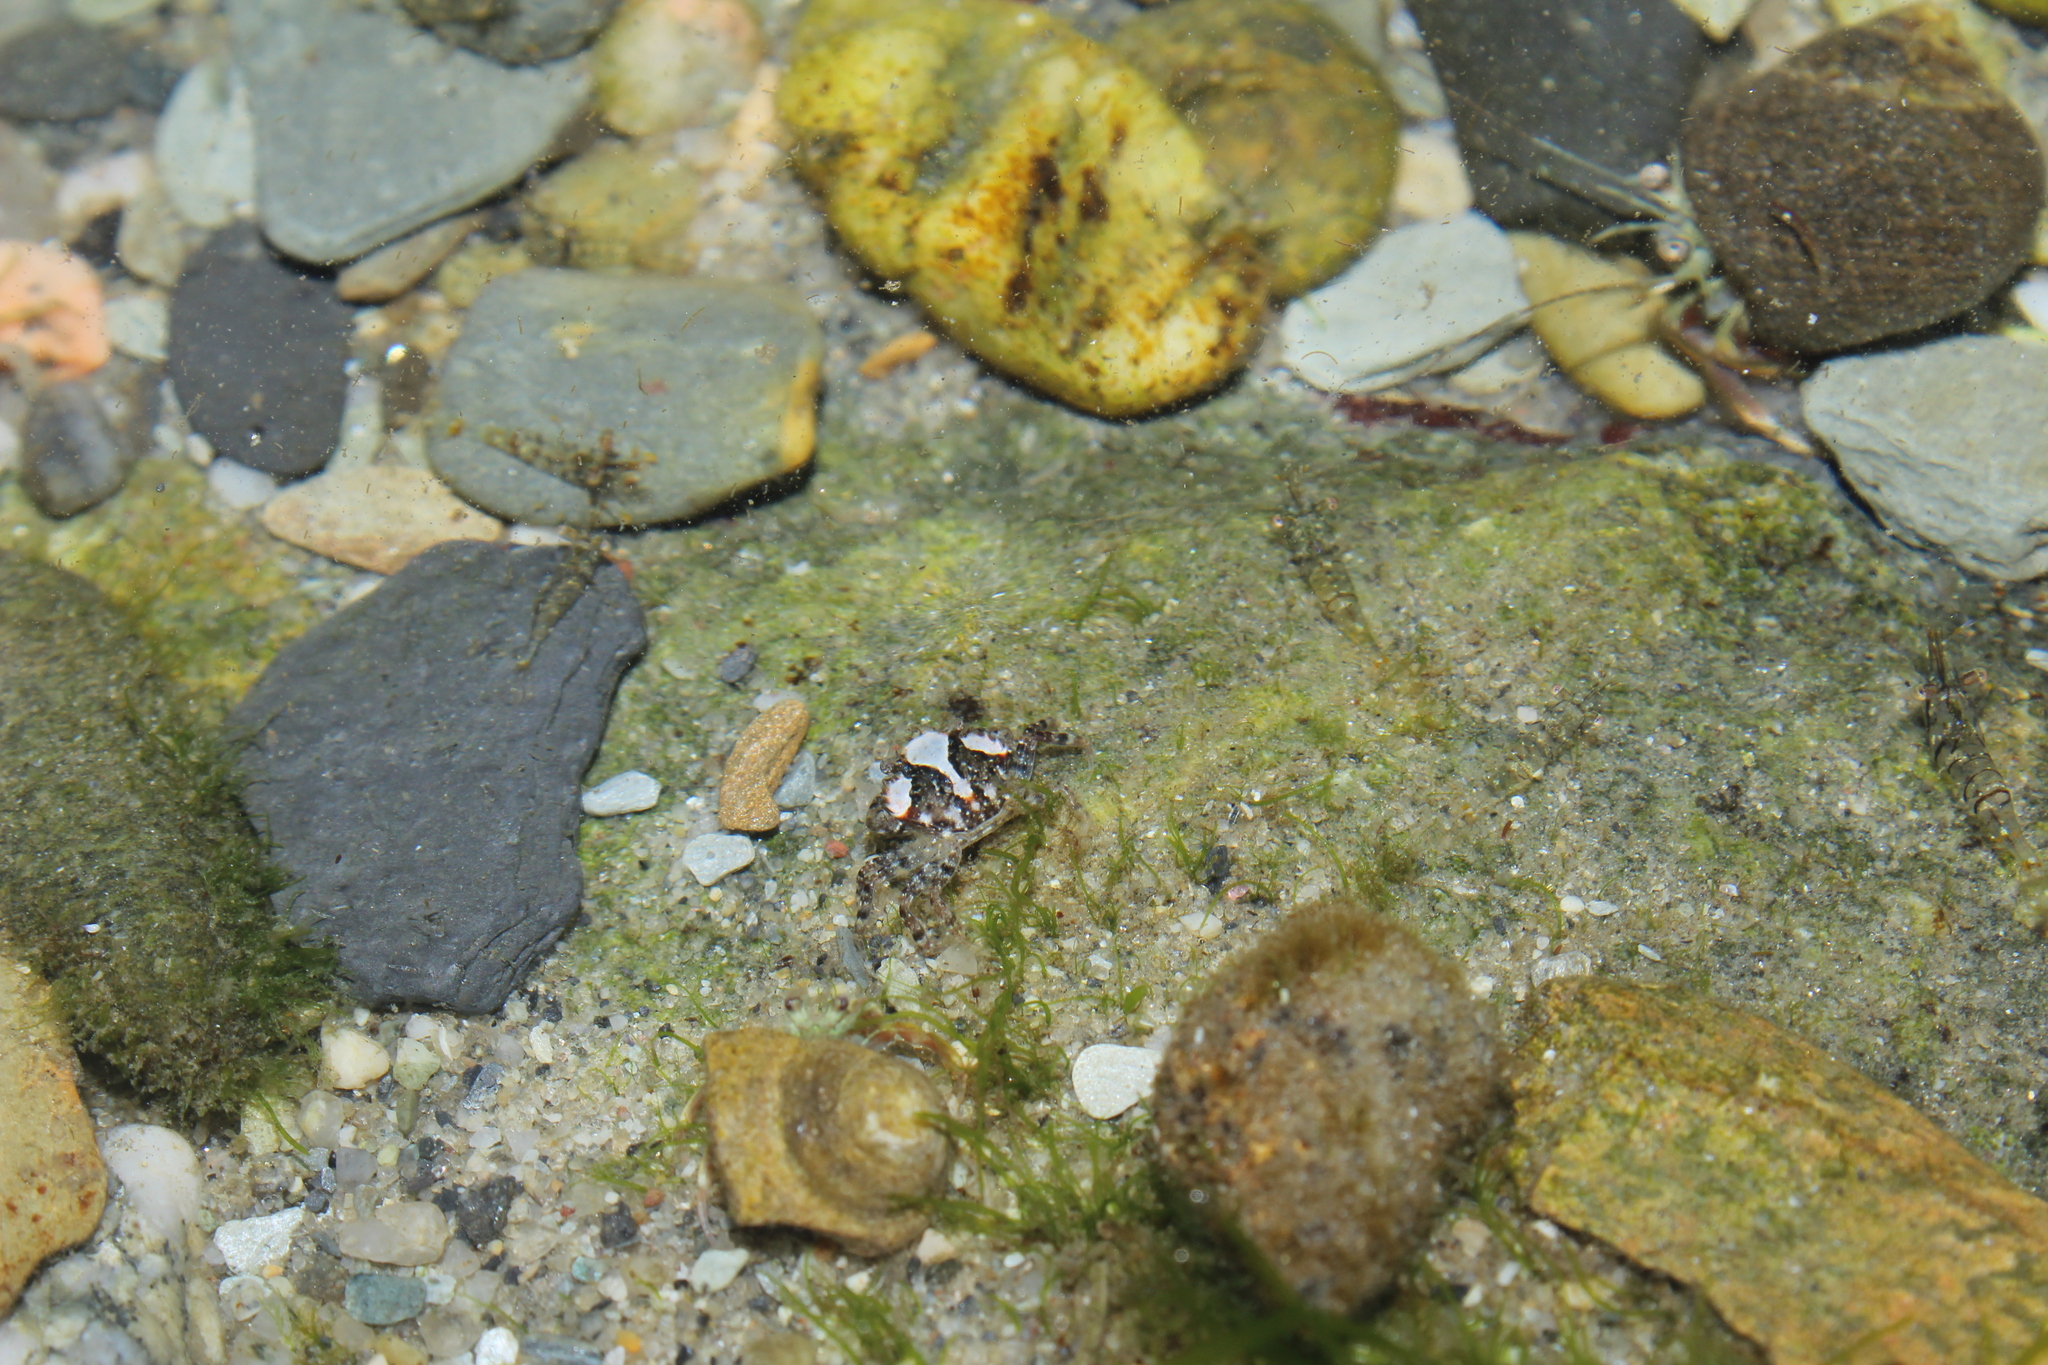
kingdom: Animalia
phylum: Arthropoda
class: Malacostraca
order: Decapoda
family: Carcinidae
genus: Carcinus
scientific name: Carcinus maenas
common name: European green crab
